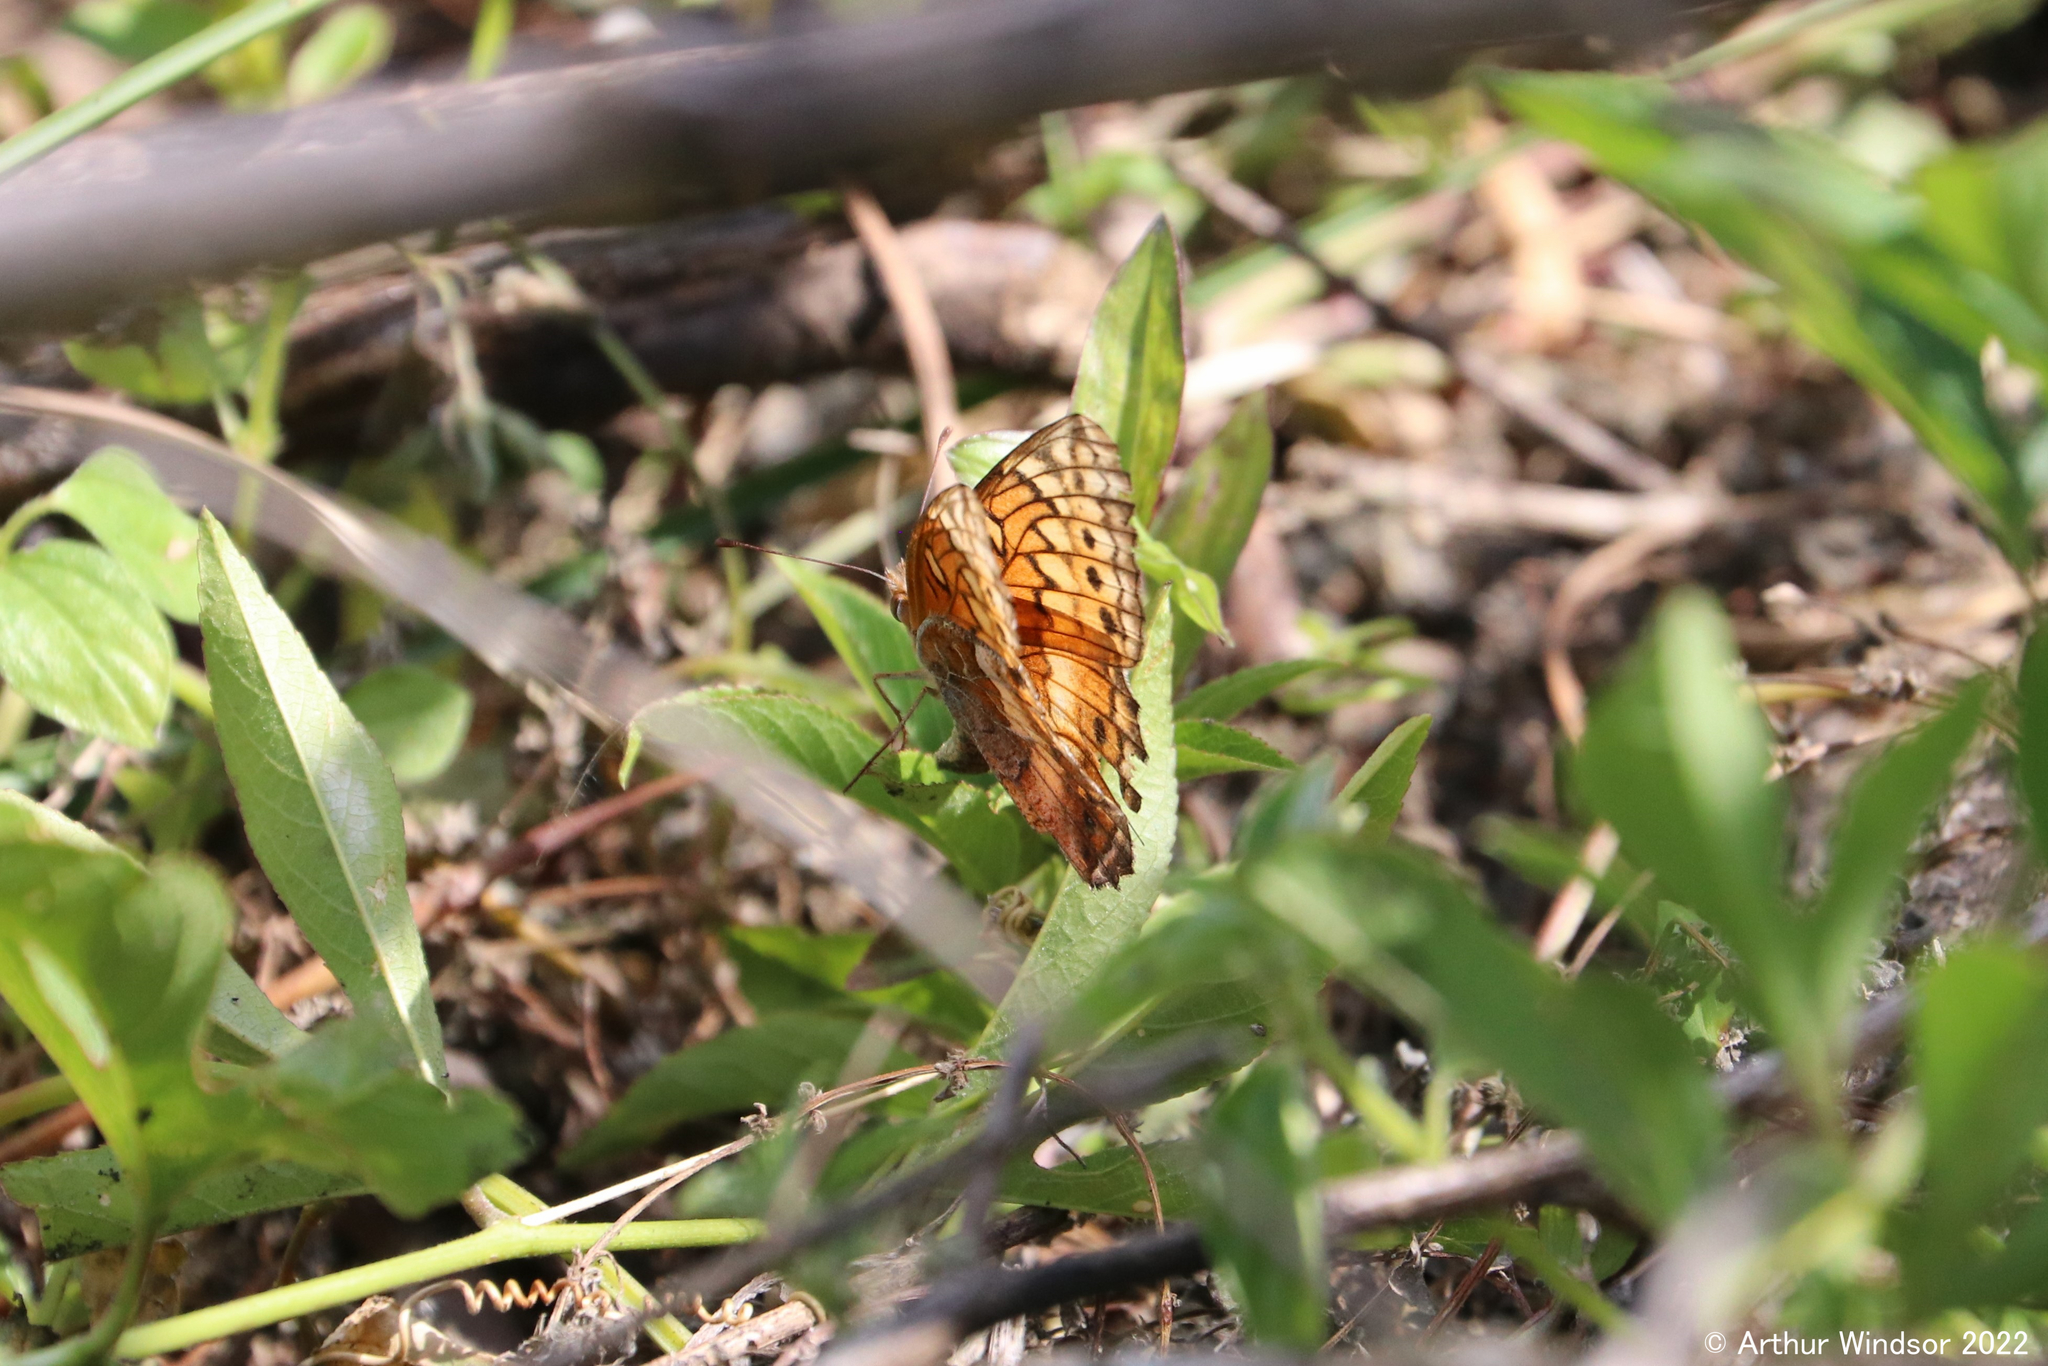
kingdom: Animalia
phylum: Arthropoda
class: Insecta
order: Lepidoptera
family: Nymphalidae
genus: Euptoieta
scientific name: Euptoieta claudia
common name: Variegated fritillary
